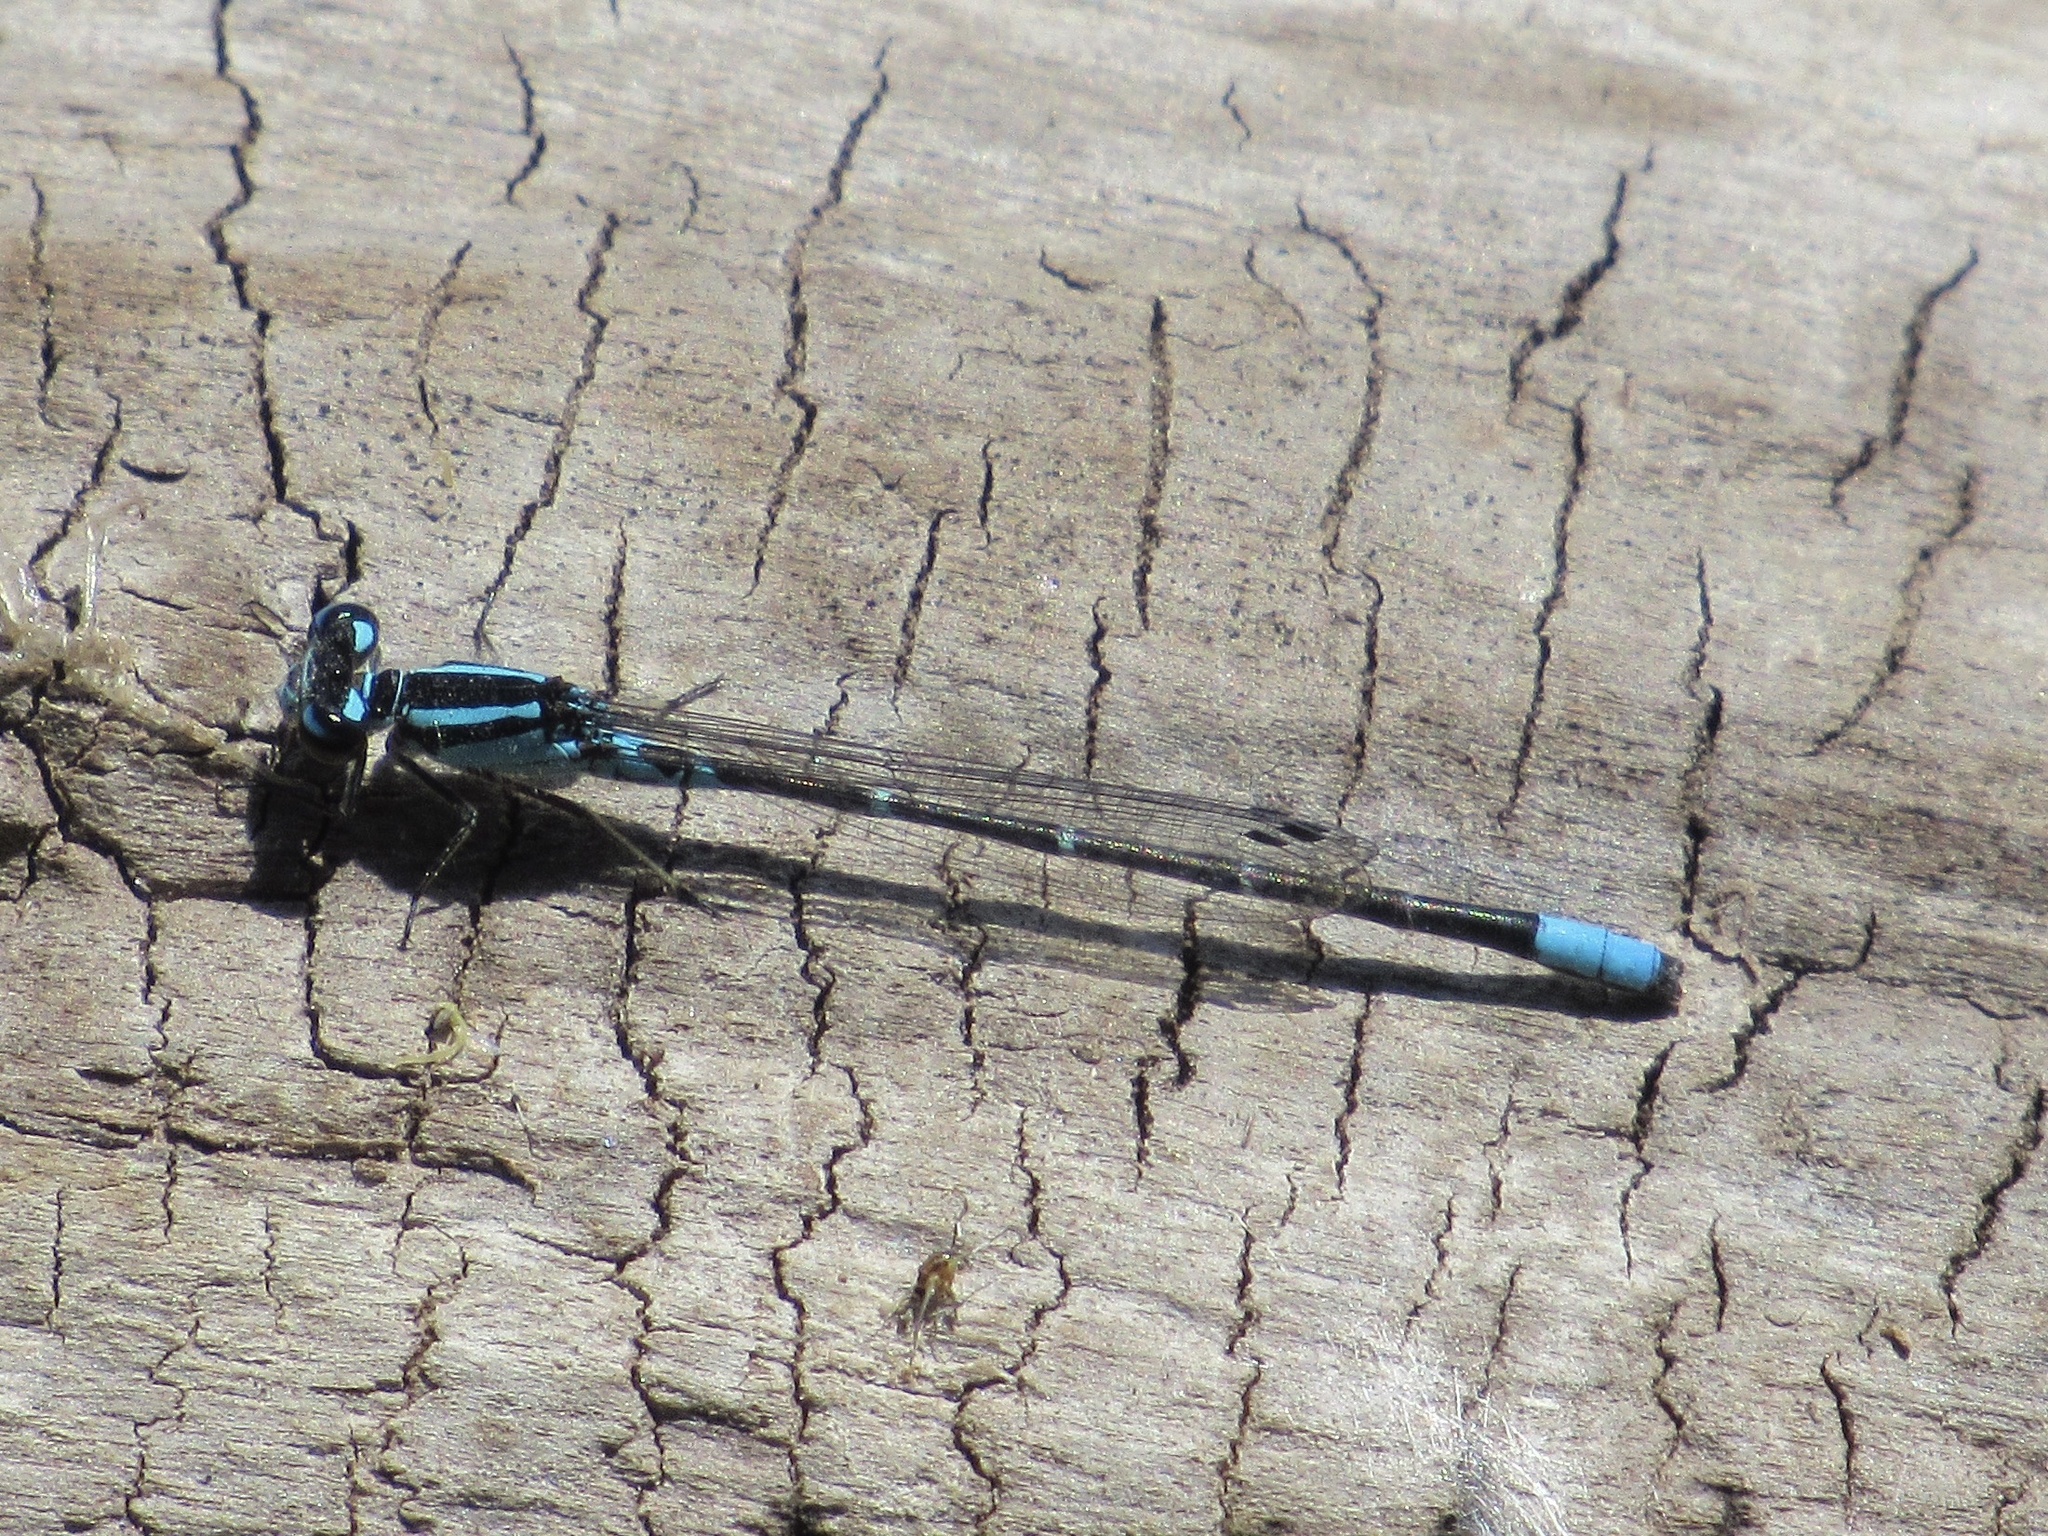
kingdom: Animalia
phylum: Arthropoda
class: Insecta
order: Odonata
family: Coenagrionidae
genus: Enallagma
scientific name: Enallagma geminatum
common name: Skimming bluet
